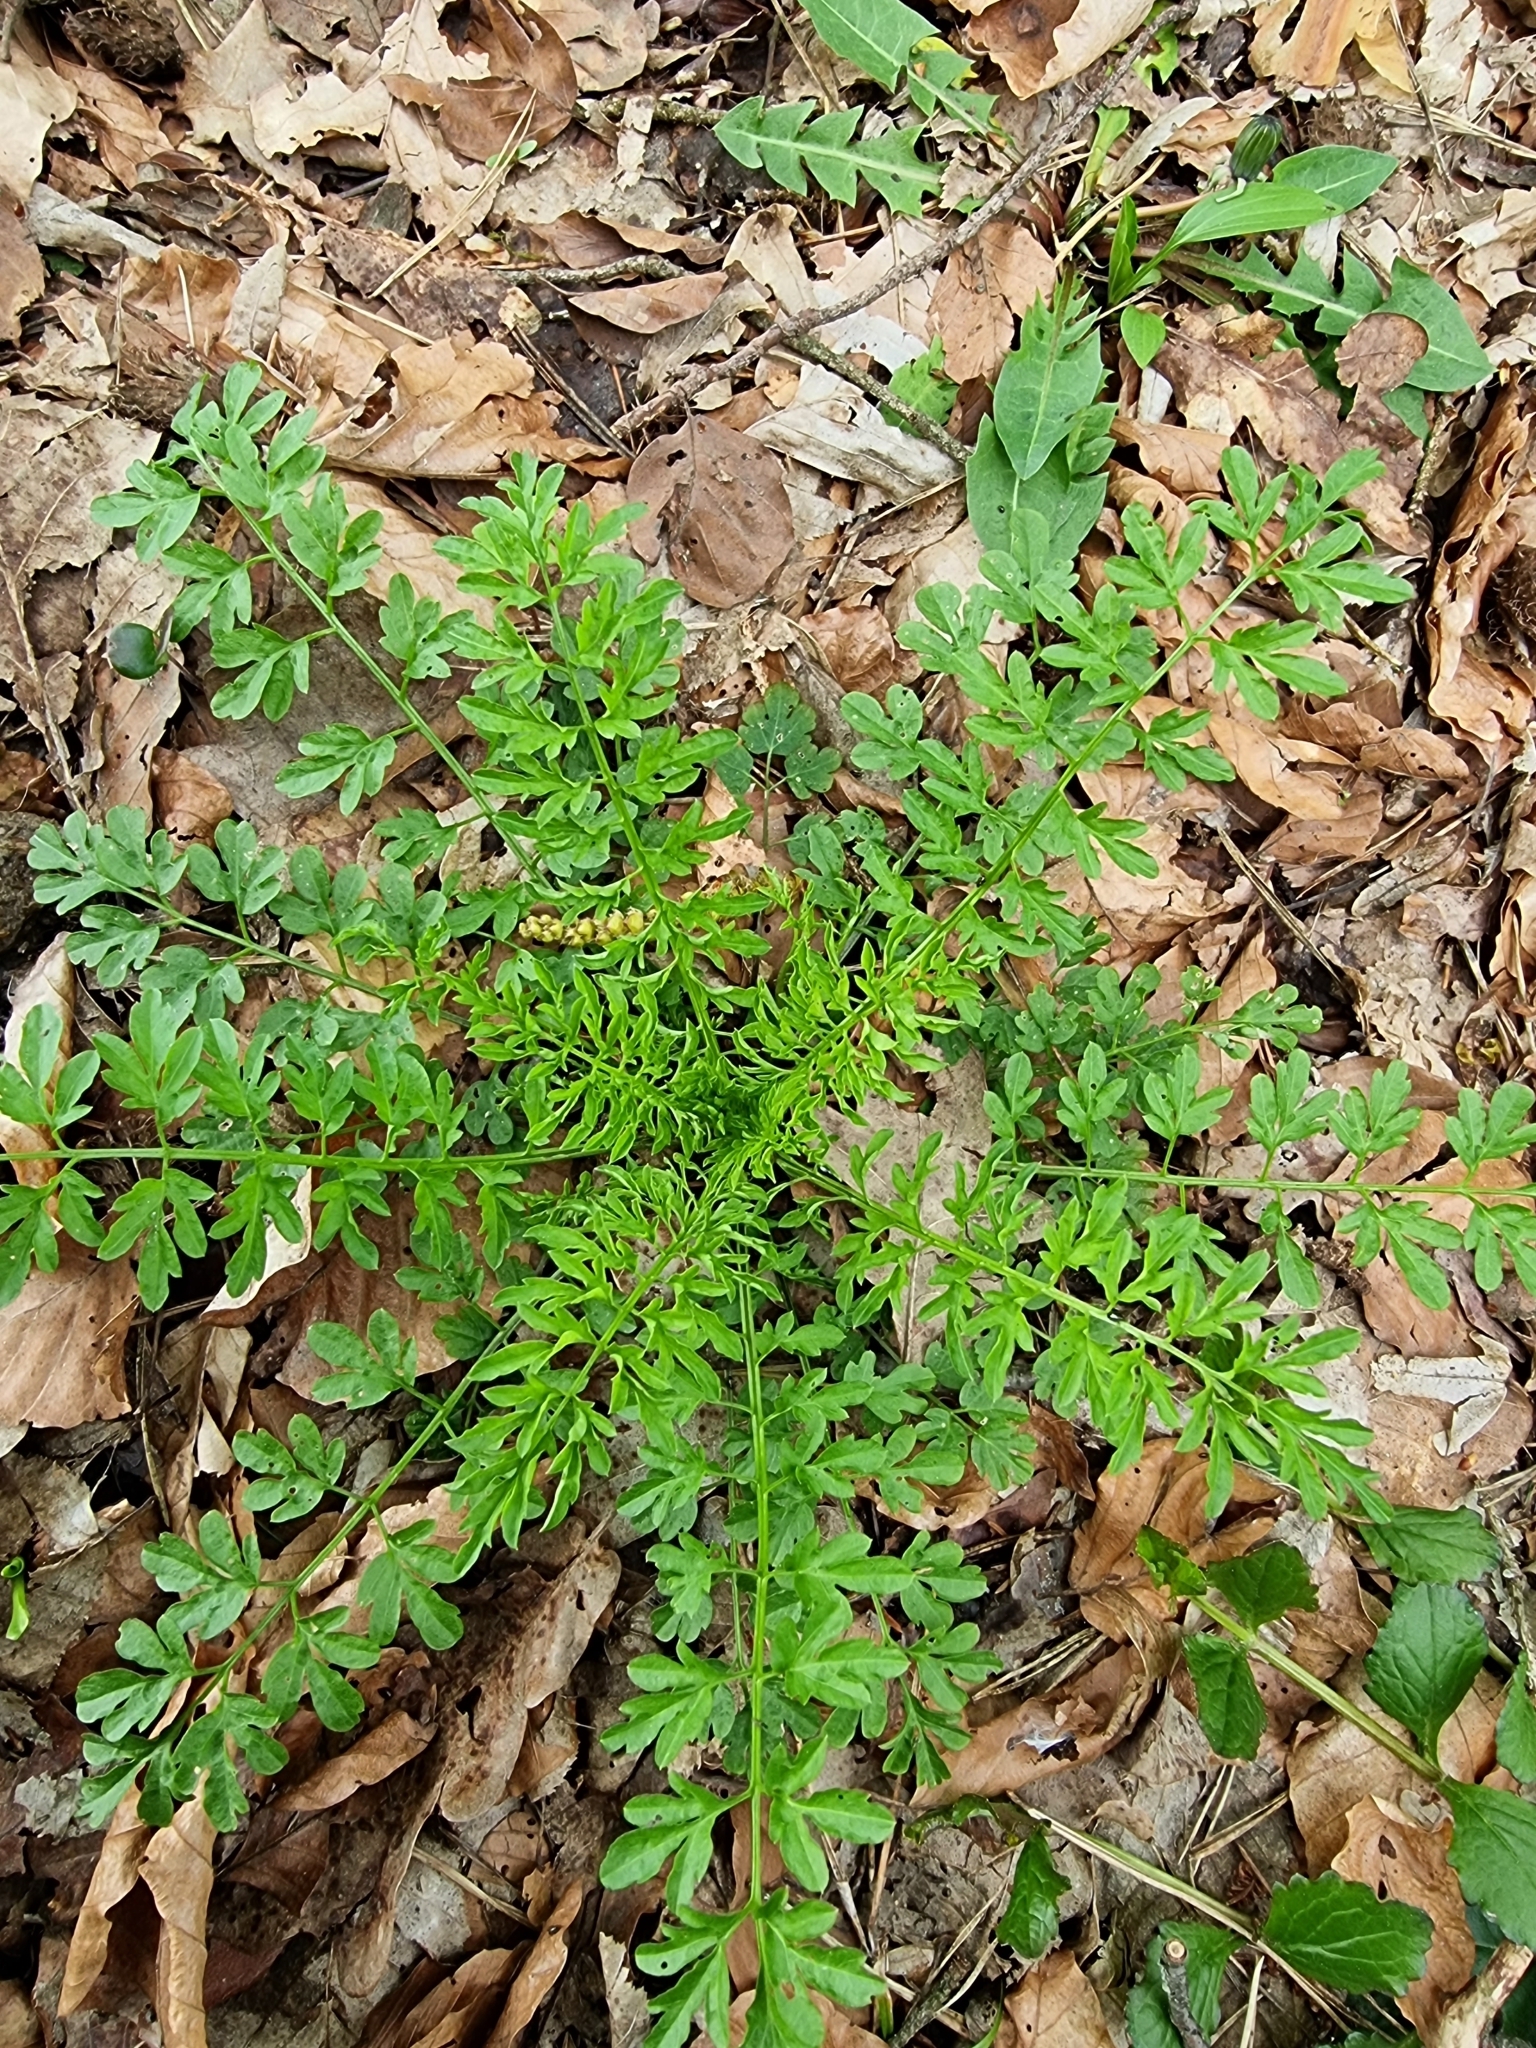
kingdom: Plantae
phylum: Tracheophyta
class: Magnoliopsida
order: Brassicales
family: Brassicaceae
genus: Cardamine
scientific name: Cardamine impatiens
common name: Narrow-leaved bitter-cress
